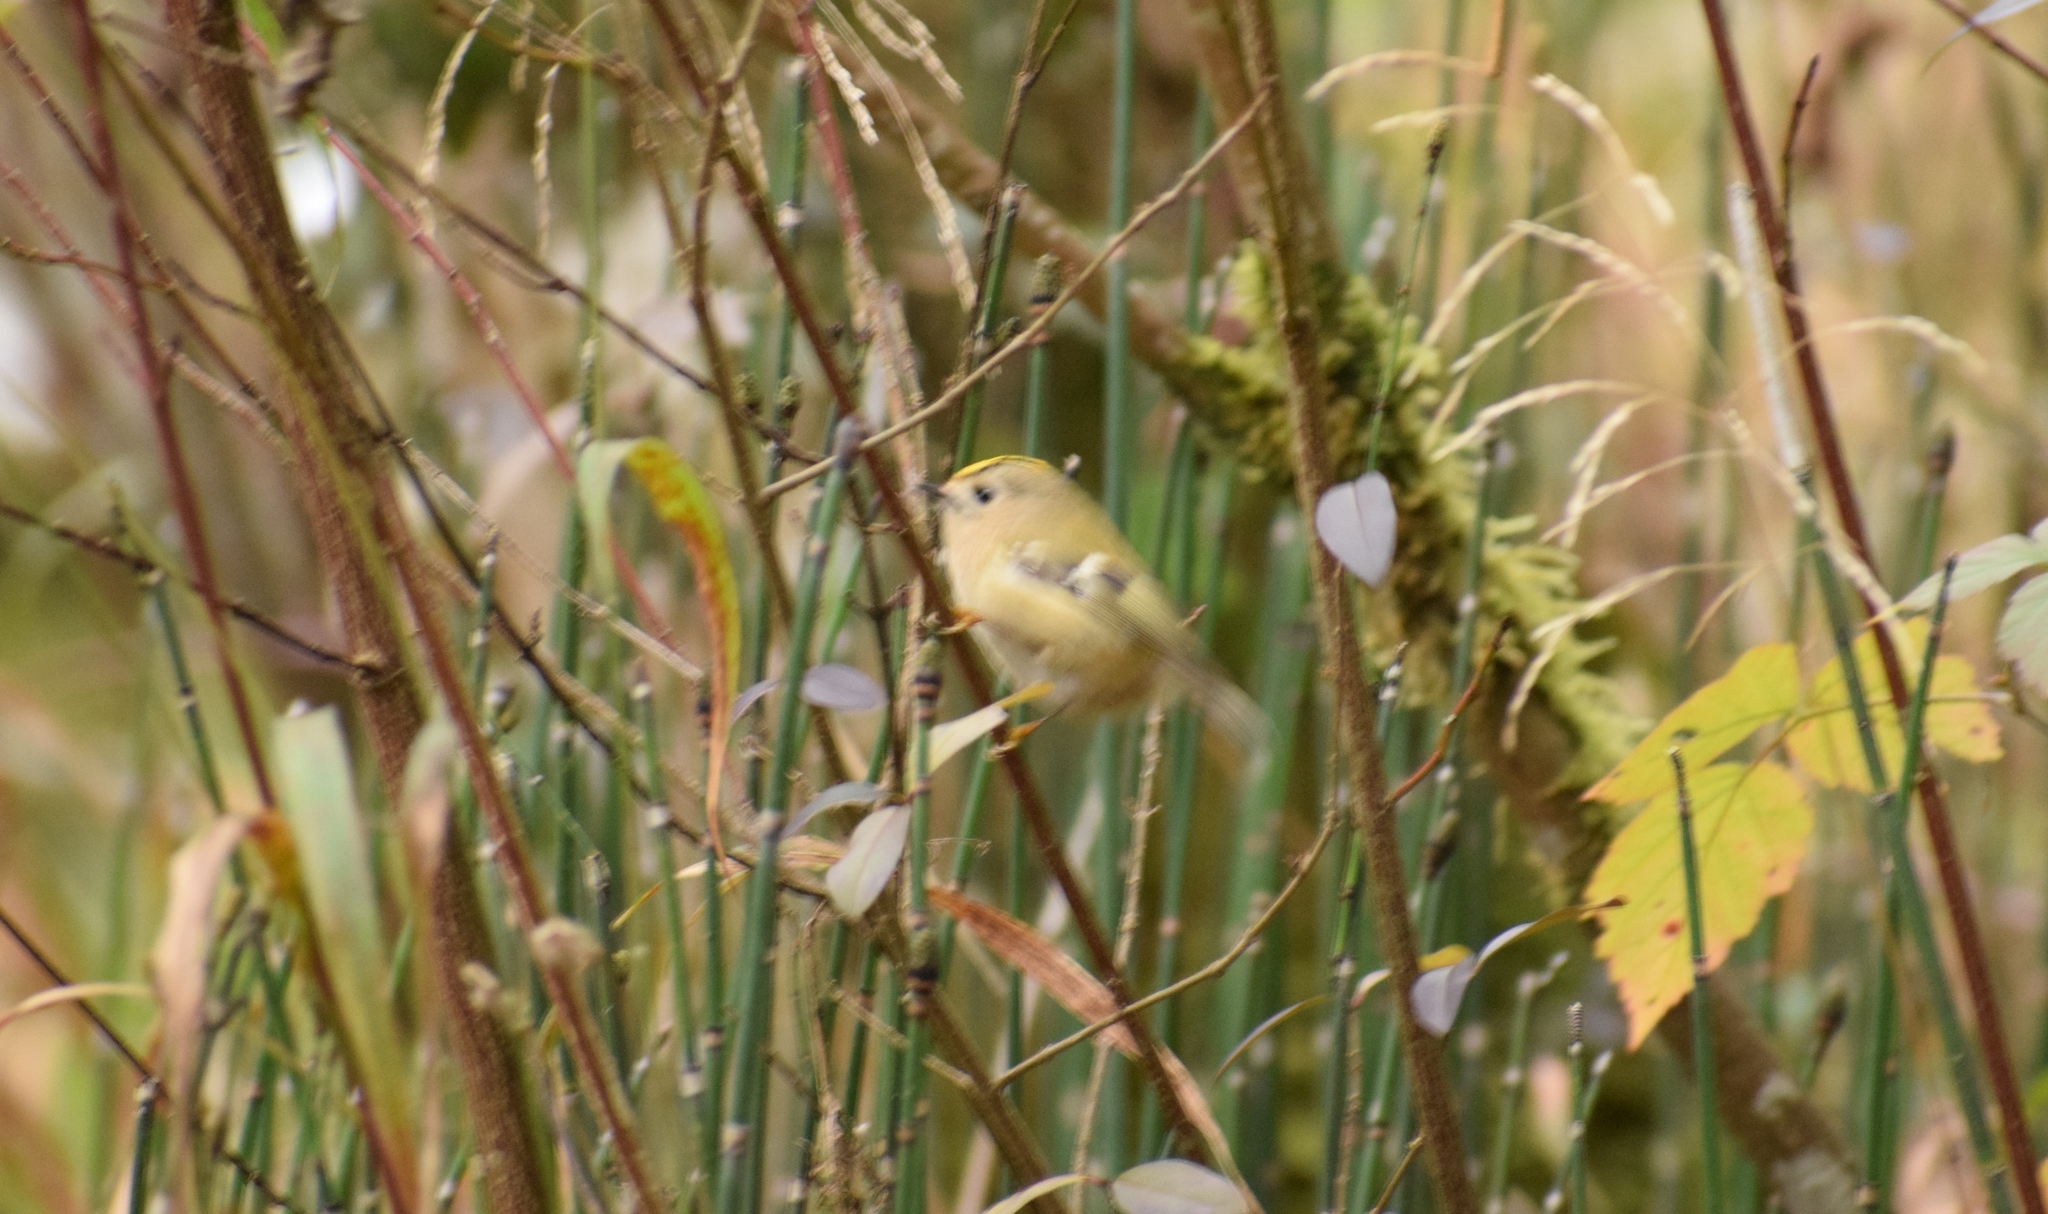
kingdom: Animalia
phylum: Chordata
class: Aves
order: Passeriformes
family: Regulidae
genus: Regulus
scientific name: Regulus regulus
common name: Goldcrest
